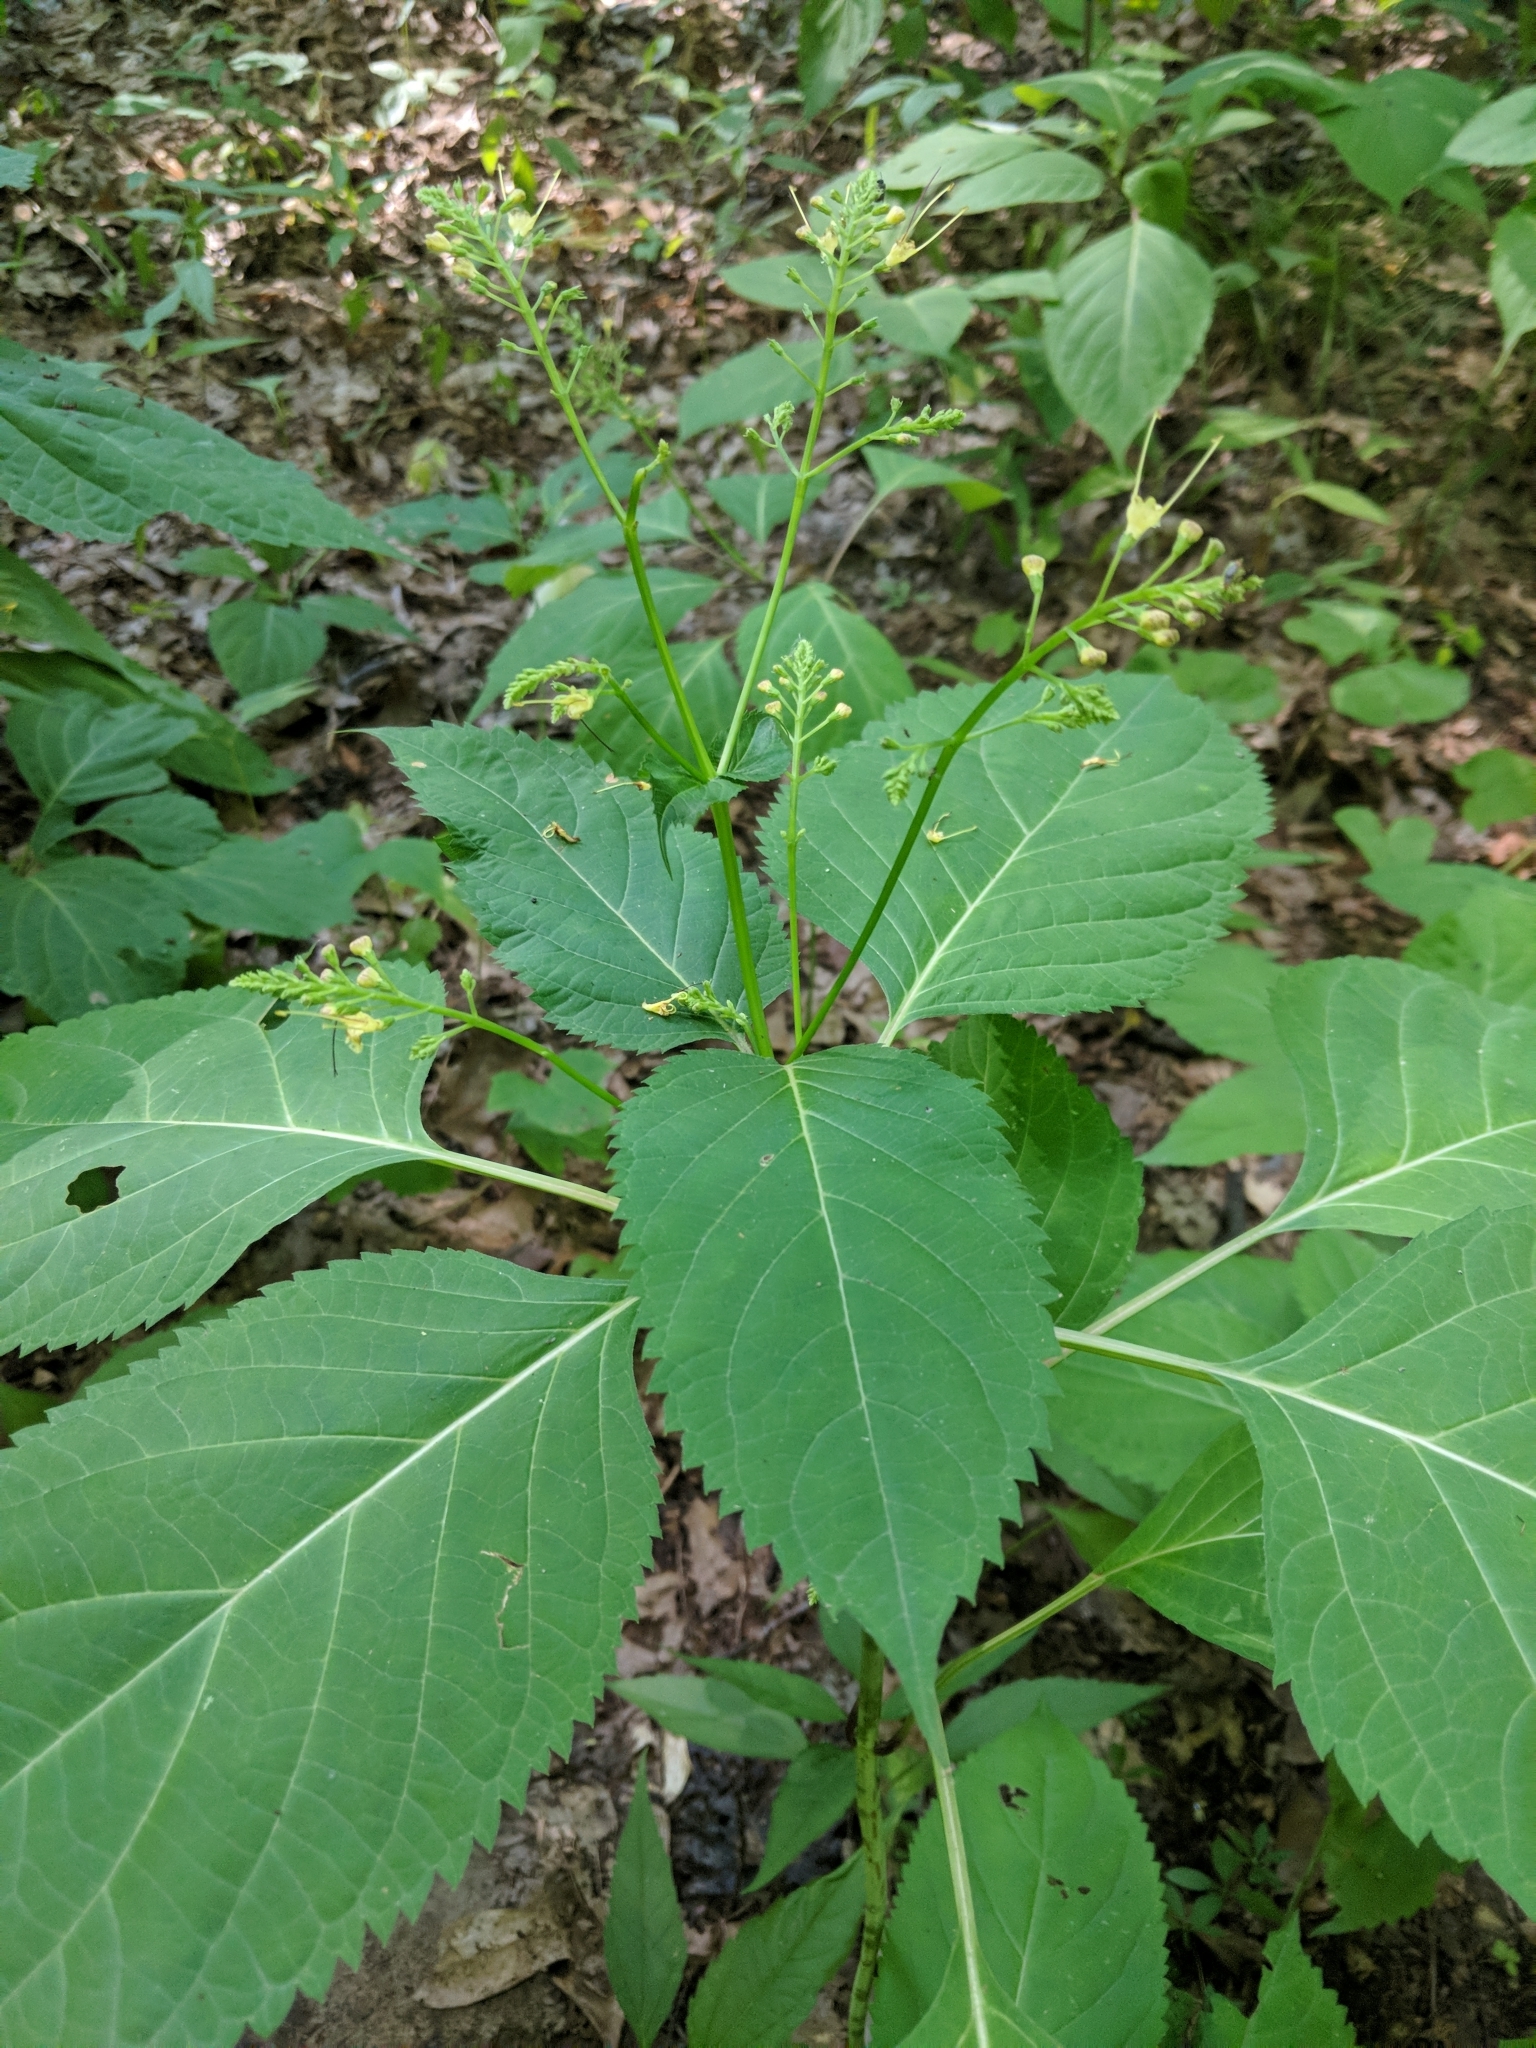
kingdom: Plantae
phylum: Tracheophyta
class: Magnoliopsida
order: Lamiales
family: Lamiaceae
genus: Collinsonia
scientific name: Collinsonia canadensis
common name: Northern horsebalm
